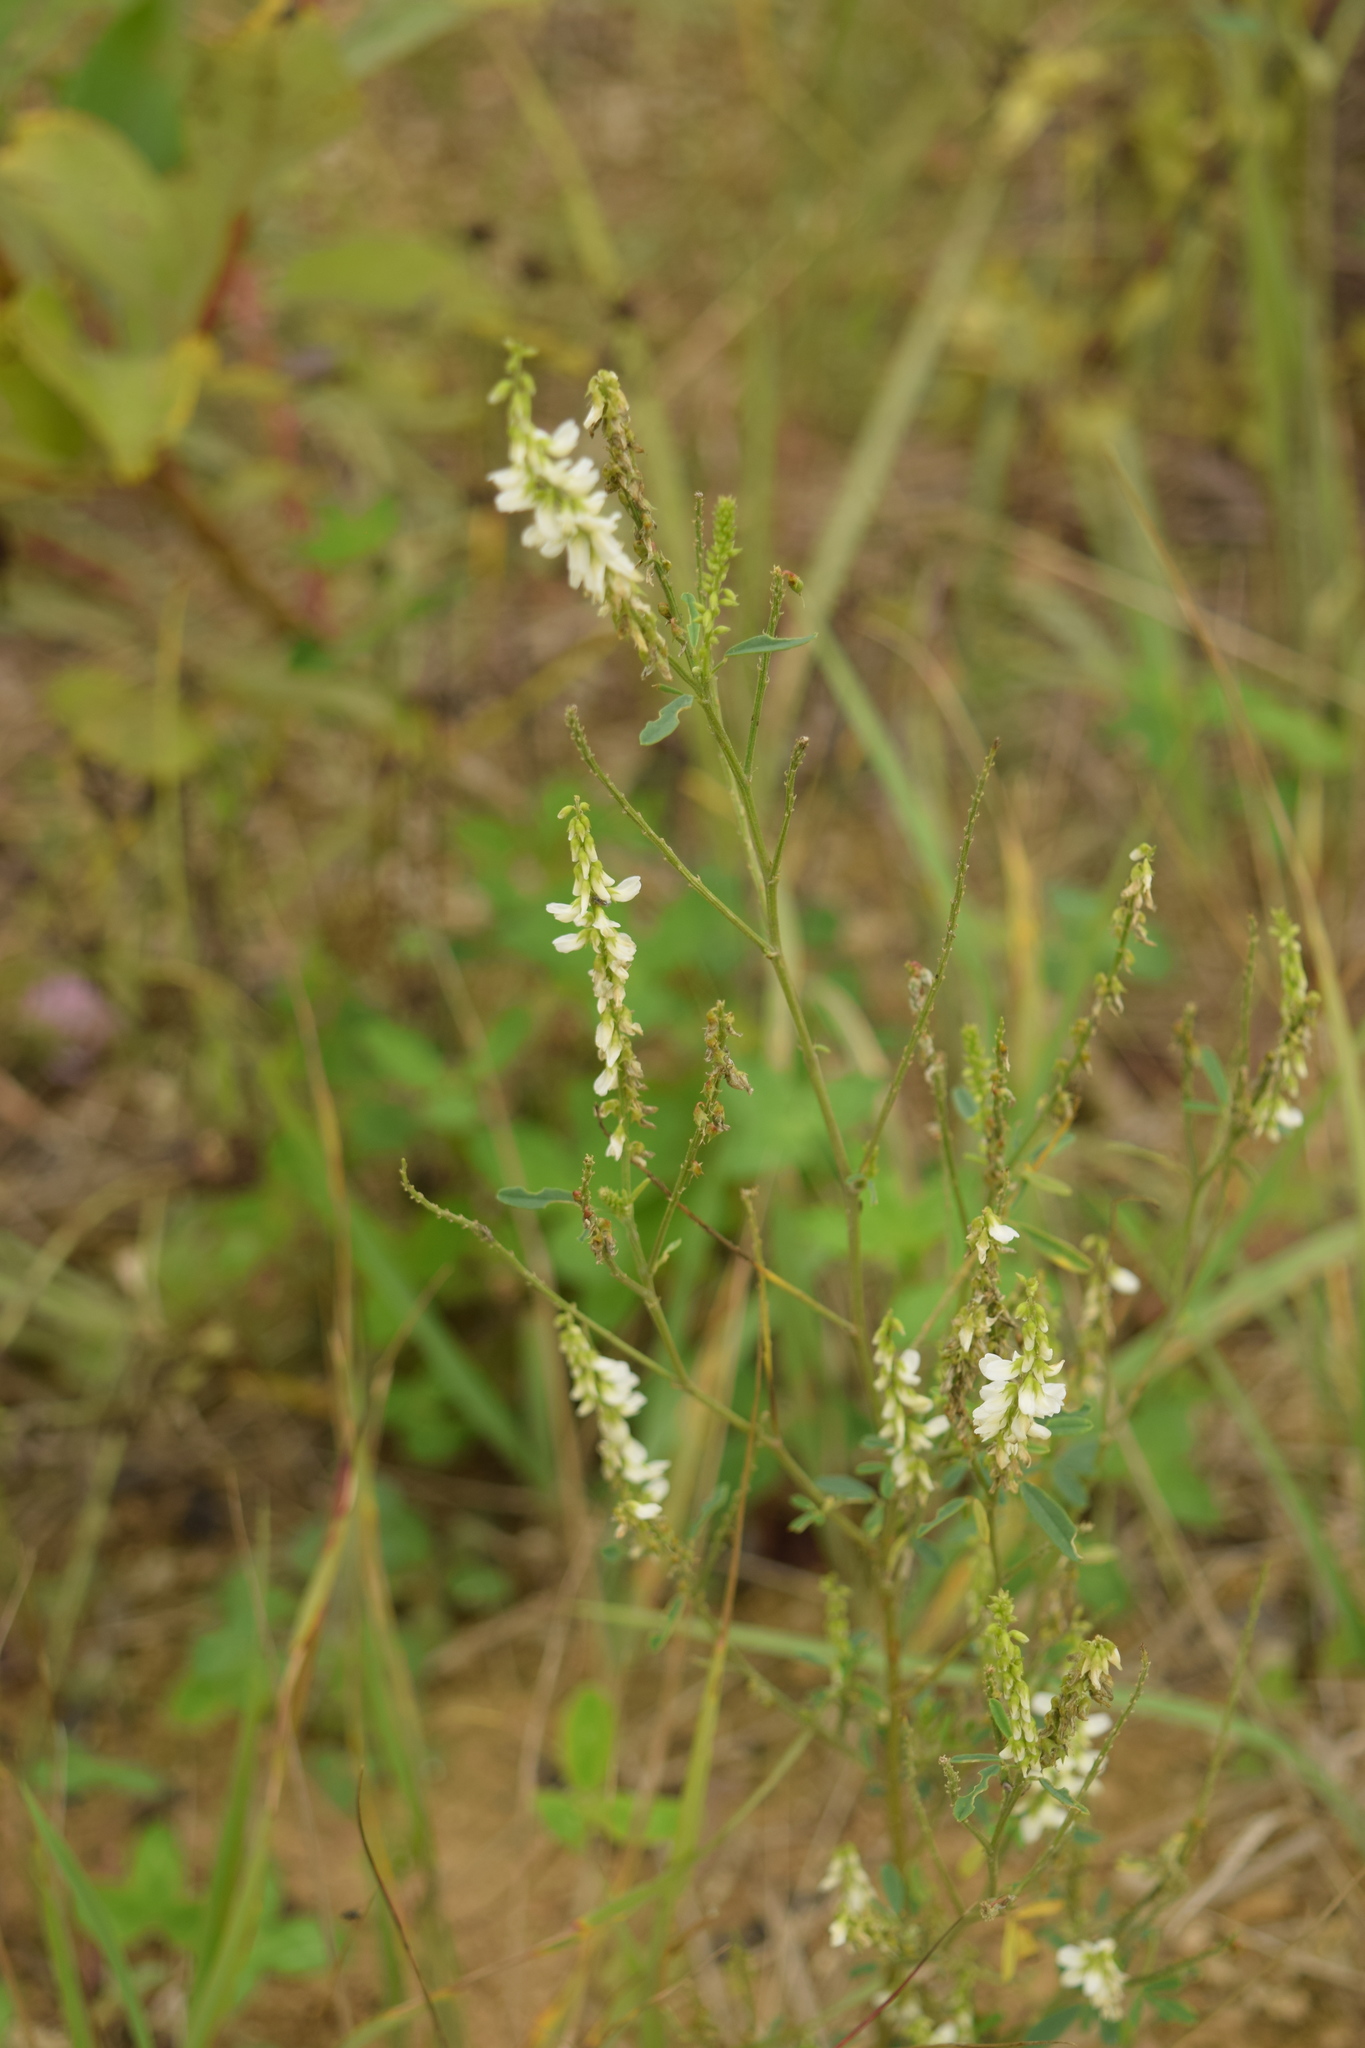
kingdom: Plantae
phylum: Tracheophyta
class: Magnoliopsida
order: Fabales
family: Fabaceae
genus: Melilotus
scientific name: Melilotus albus
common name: White melilot
